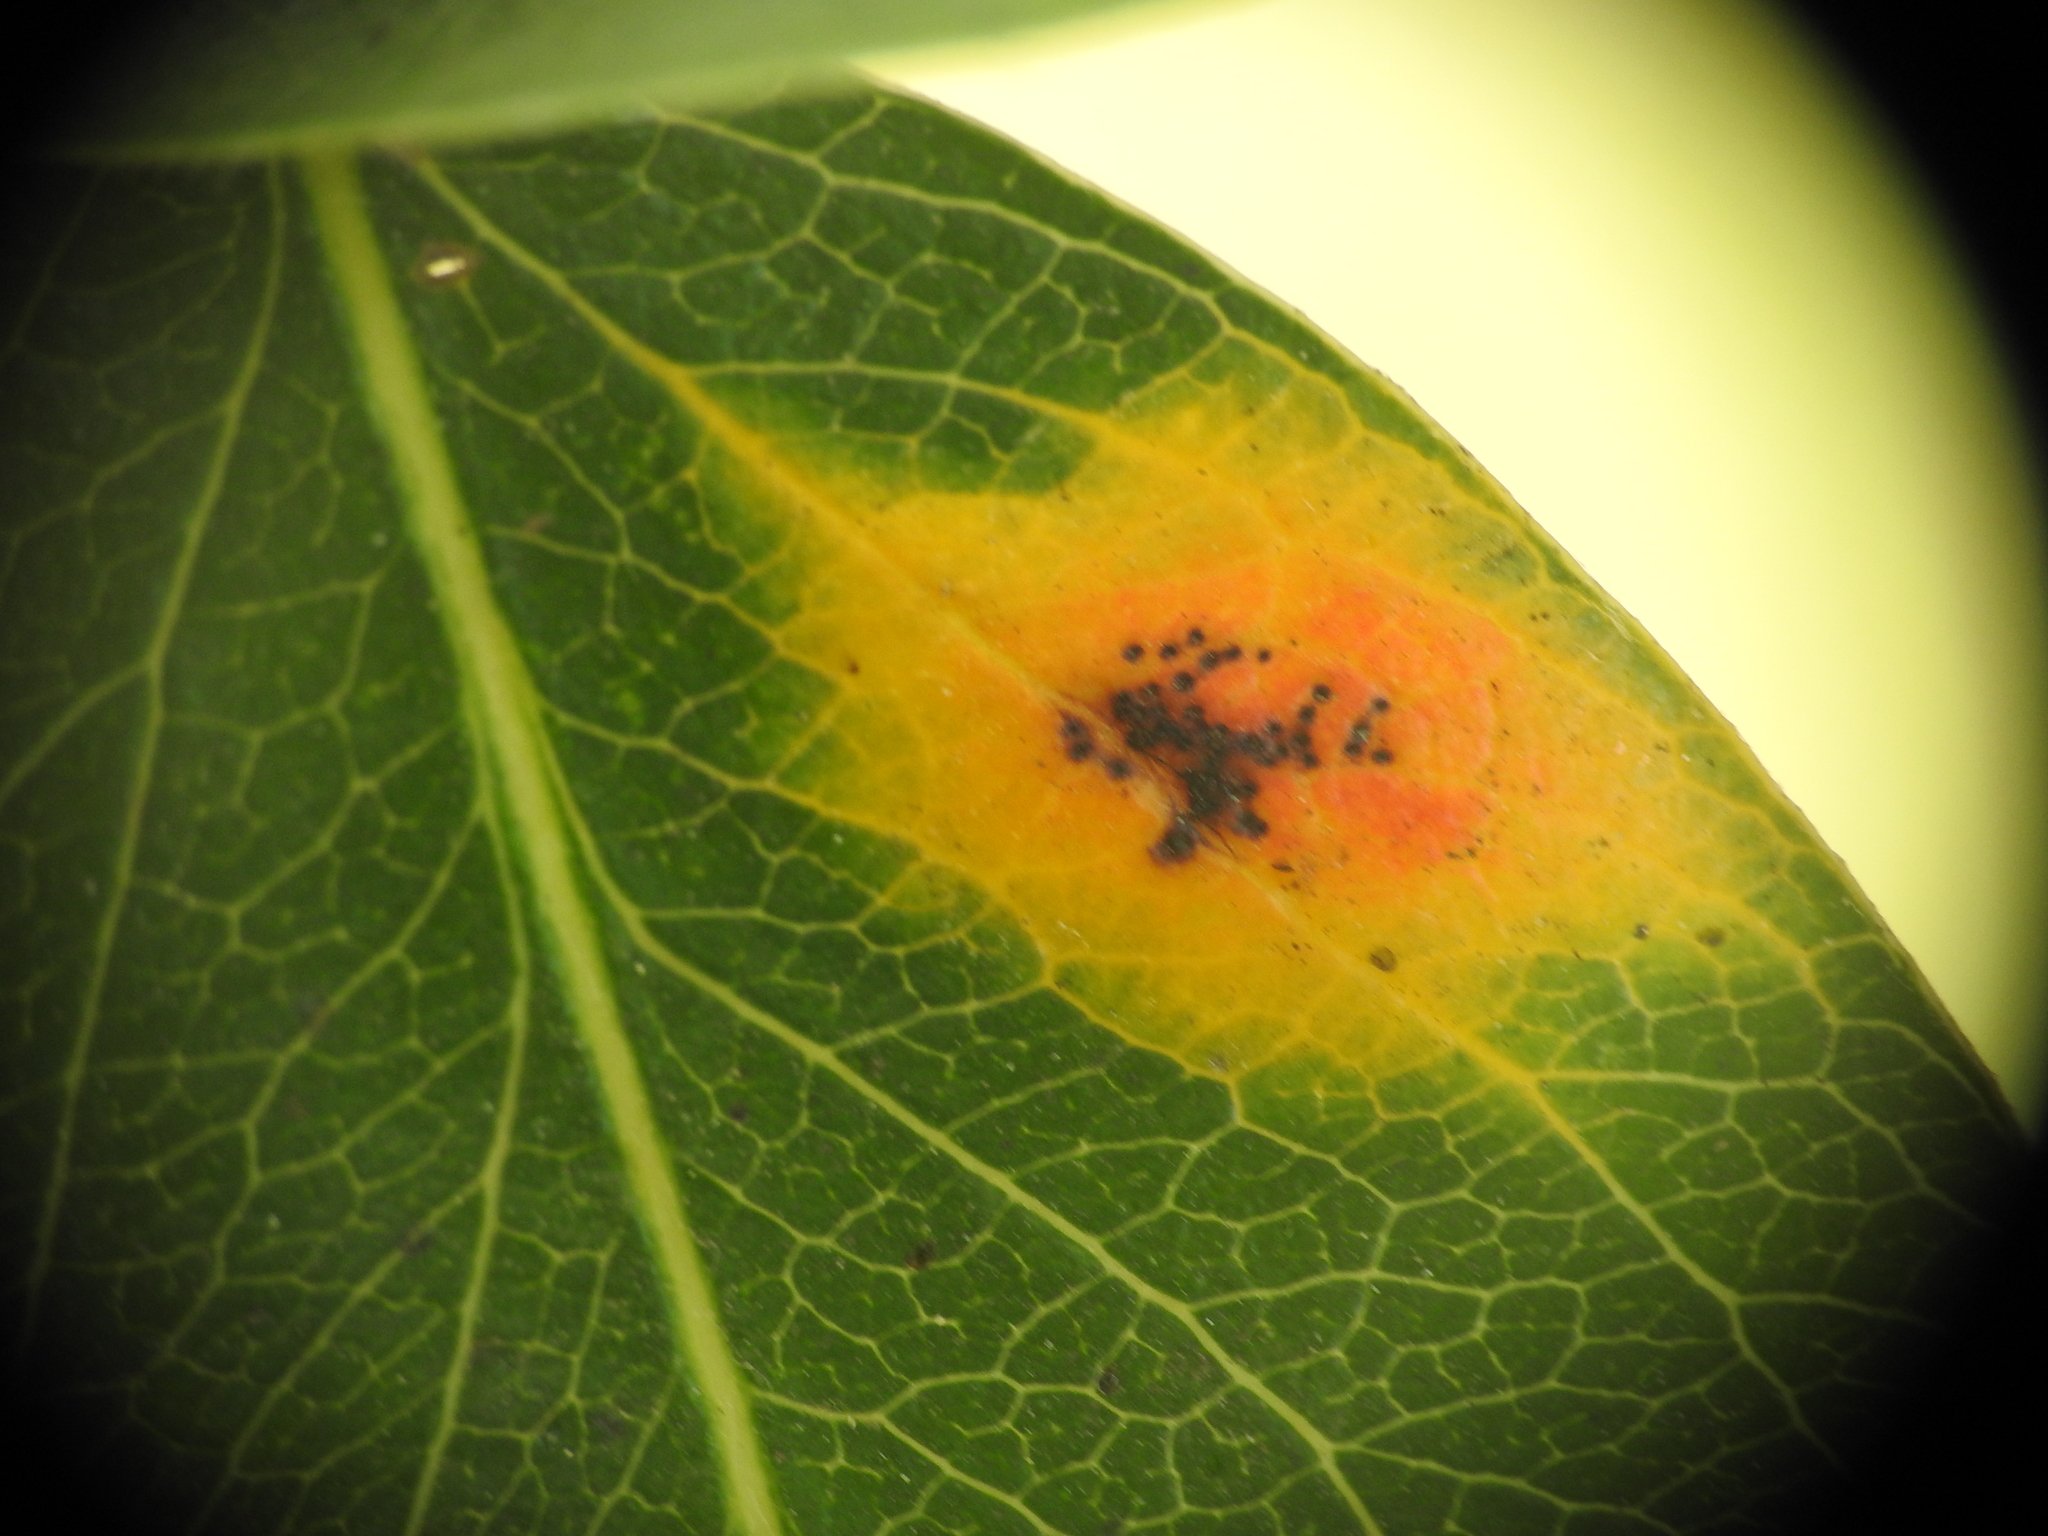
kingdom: Fungi
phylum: Basidiomycota
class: Pucciniomycetes
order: Pucciniales
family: Gymnosporangiaceae
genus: Gymnosporangium
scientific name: Gymnosporangium sabinae
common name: Pear trellis rust fungus
